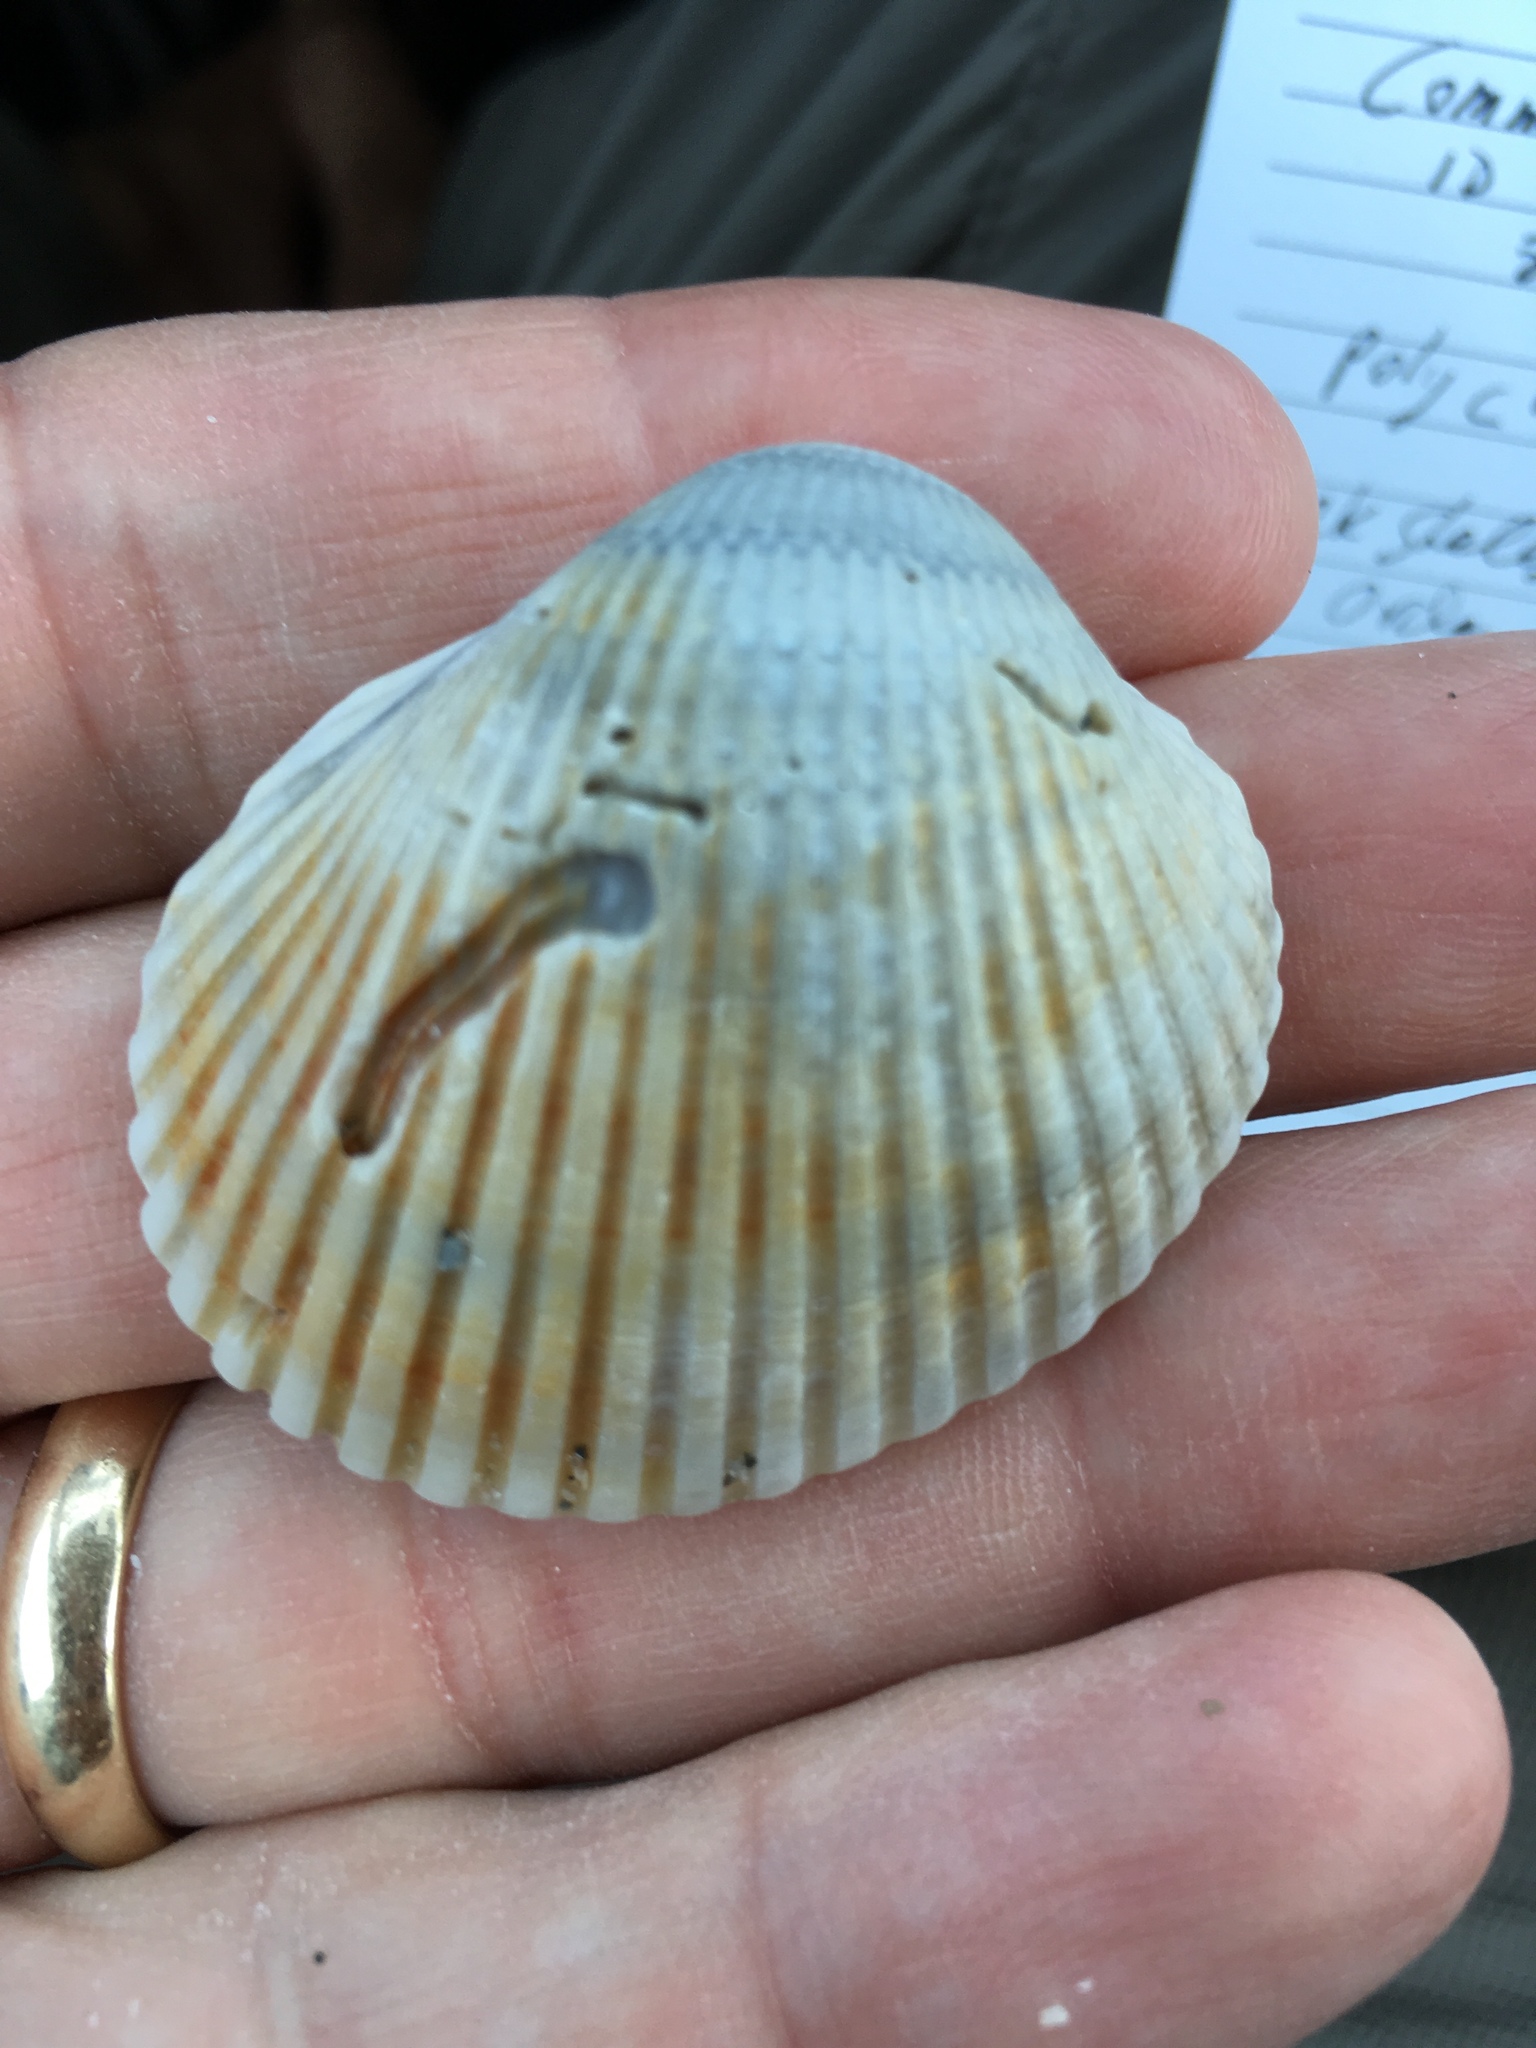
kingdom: Animalia
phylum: Mollusca
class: Bivalvia
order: Arcida
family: Arcidae
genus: Lunarca
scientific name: Lunarca ovalis
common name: Blood ark
